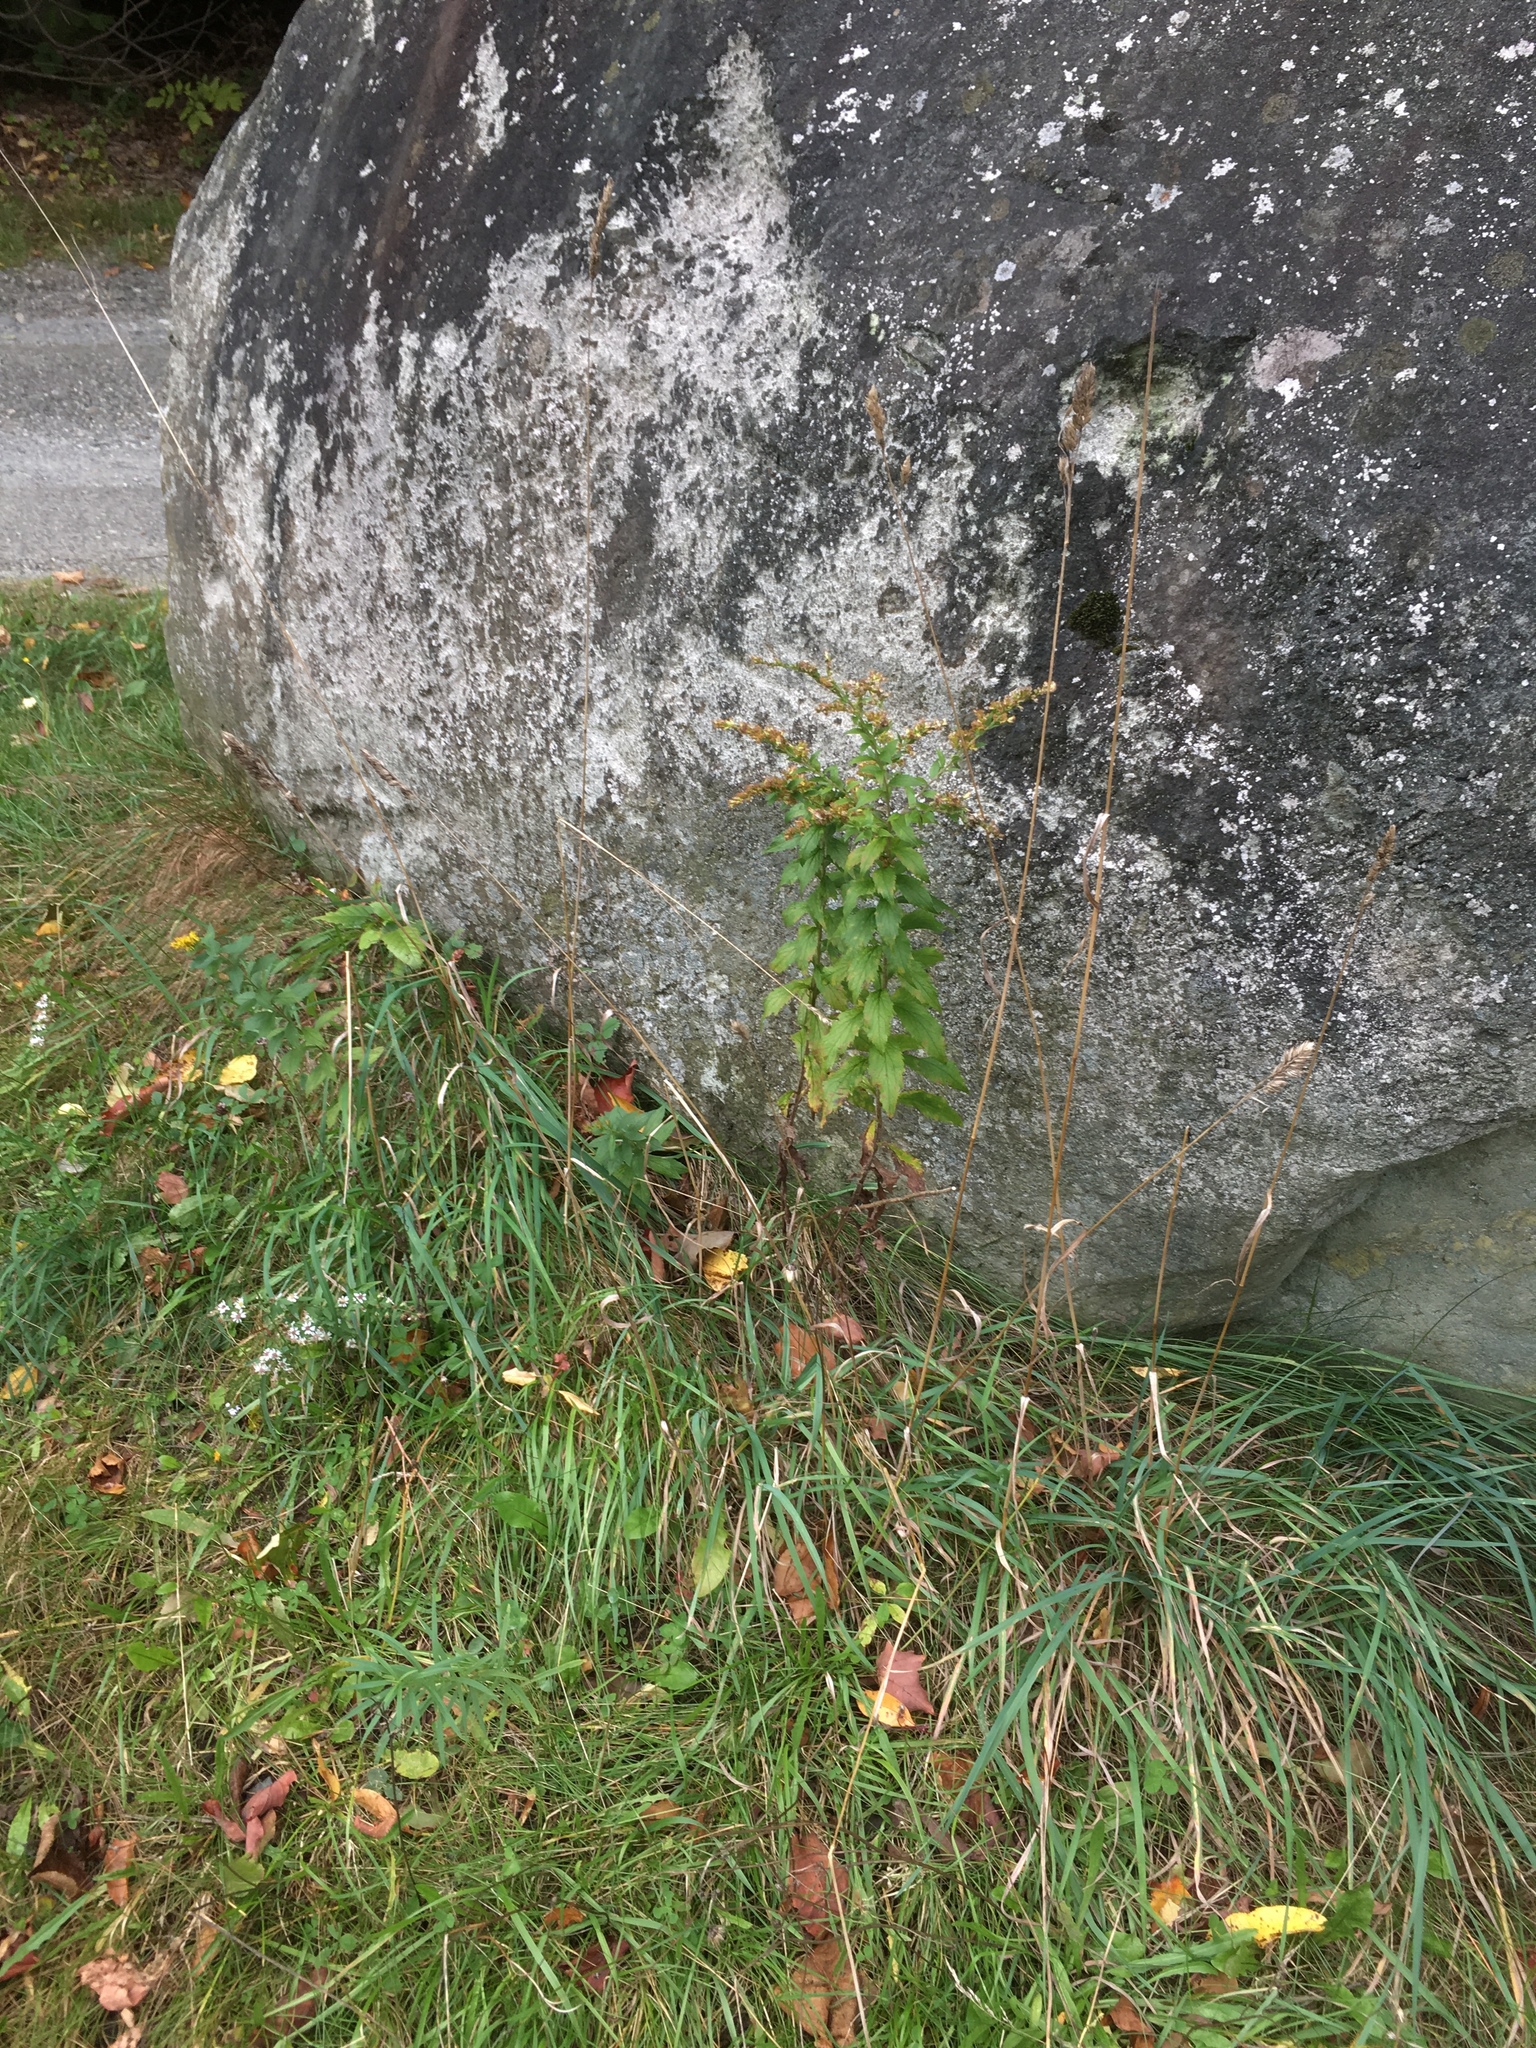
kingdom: Plantae
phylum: Tracheophyta
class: Liliopsida
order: Poales
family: Poaceae
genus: Dactylis
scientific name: Dactylis glomerata
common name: Orchardgrass
